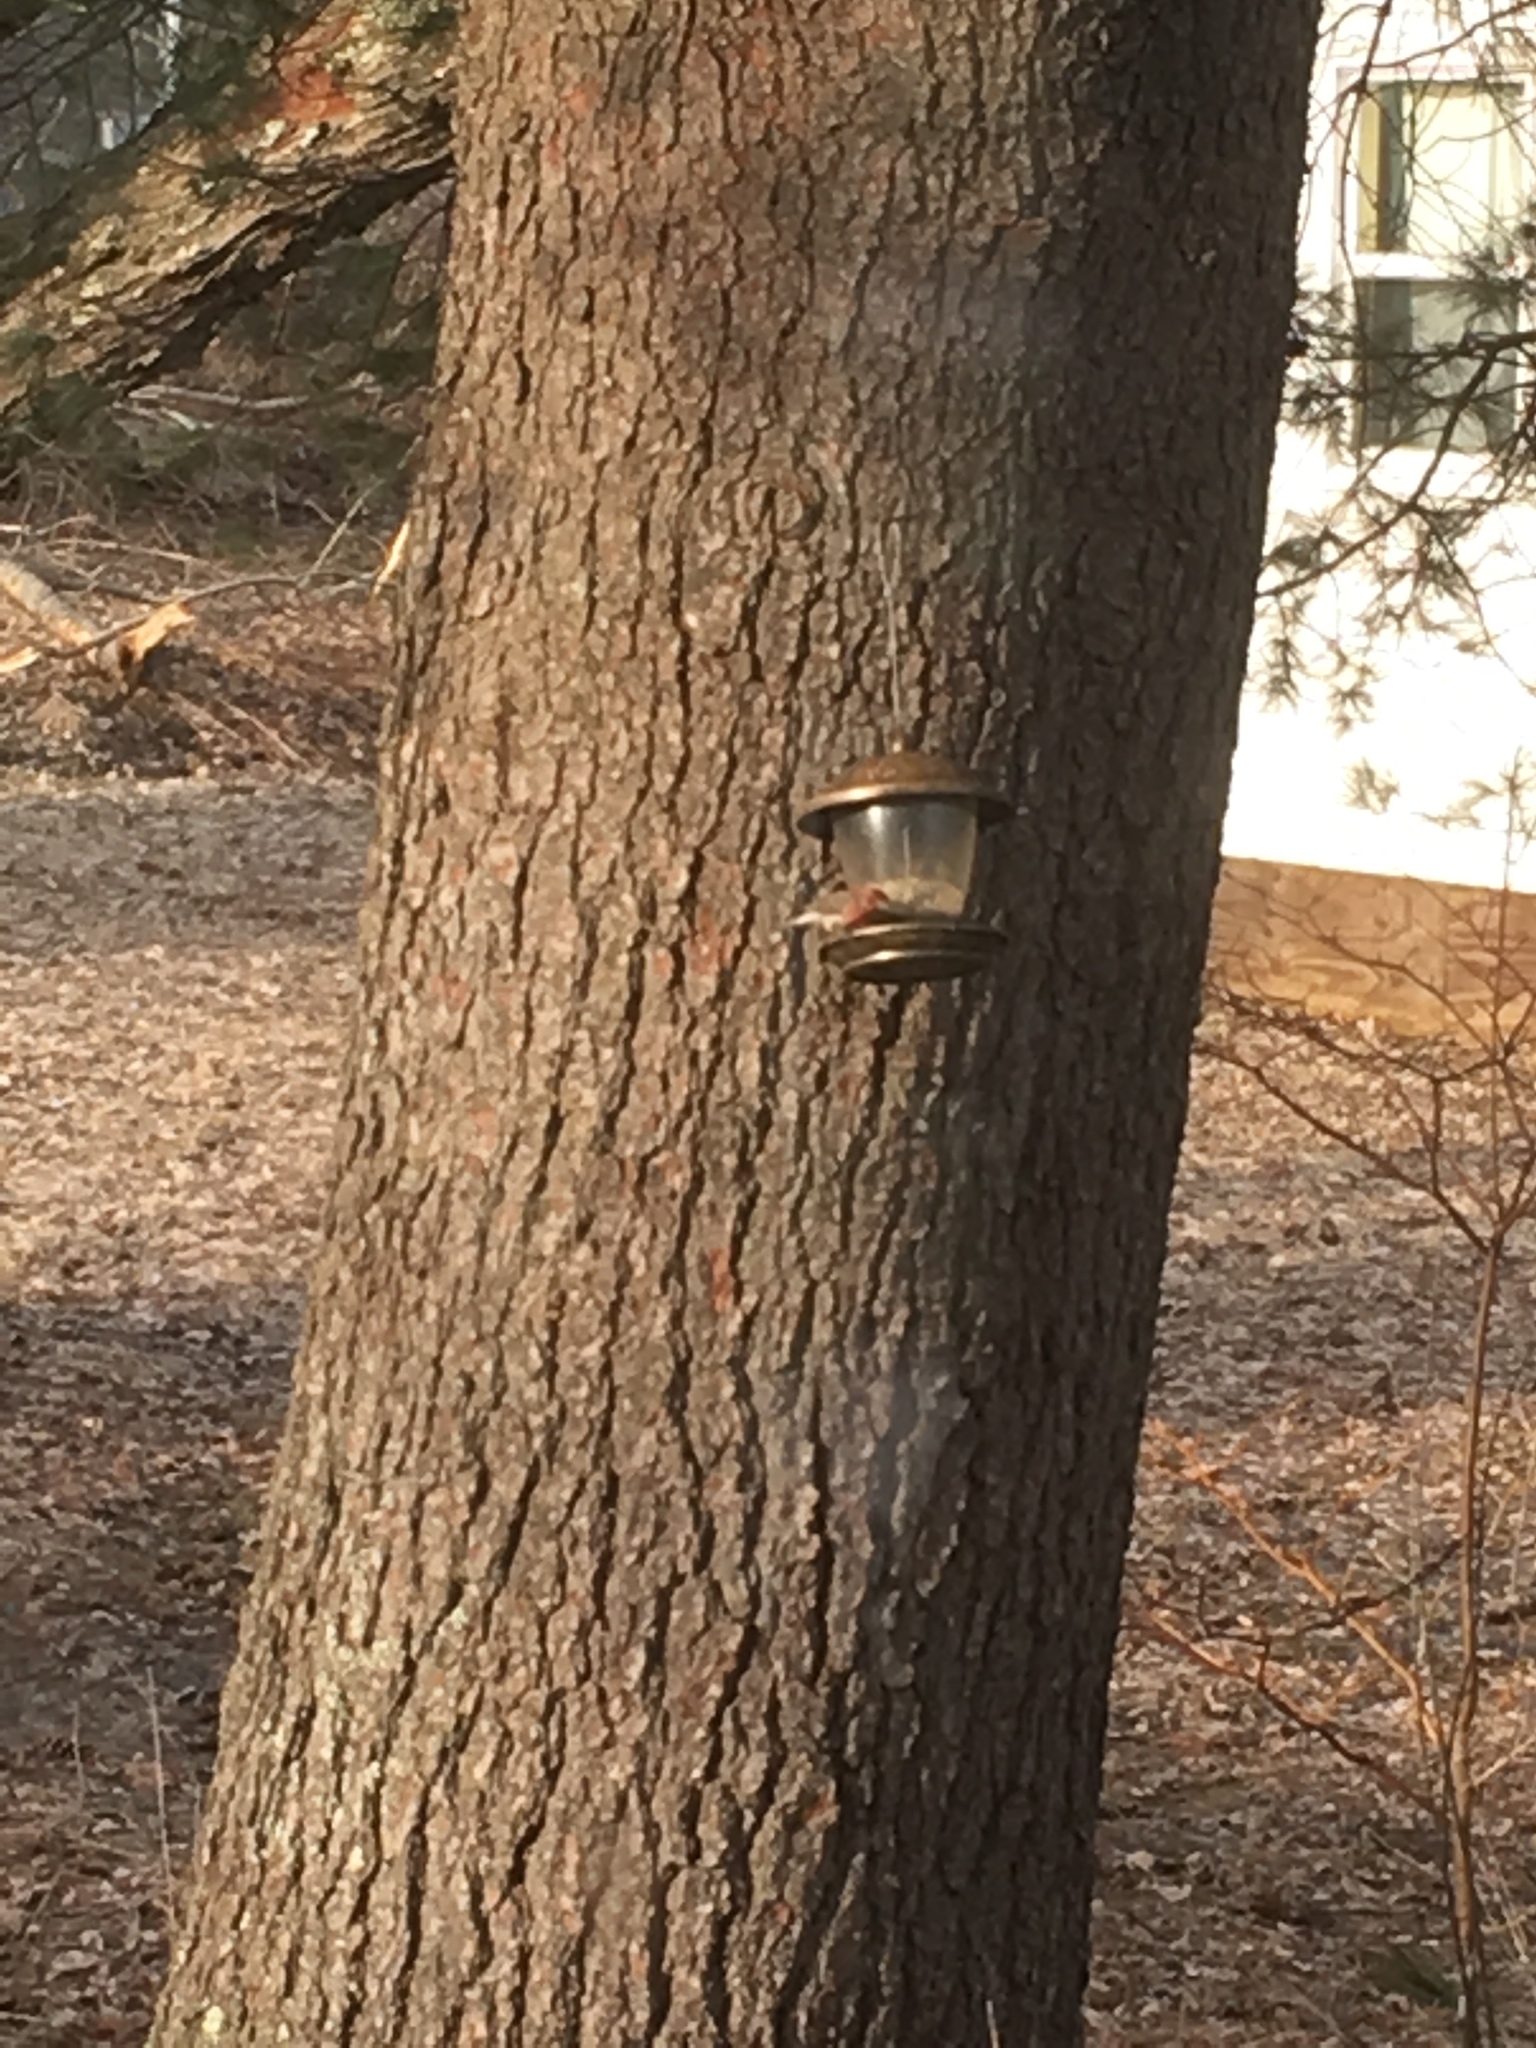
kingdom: Animalia
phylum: Chordata
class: Aves
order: Passeriformes
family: Fringillidae
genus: Haemorhous
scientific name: Haemorhous mexicanus
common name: House finch
